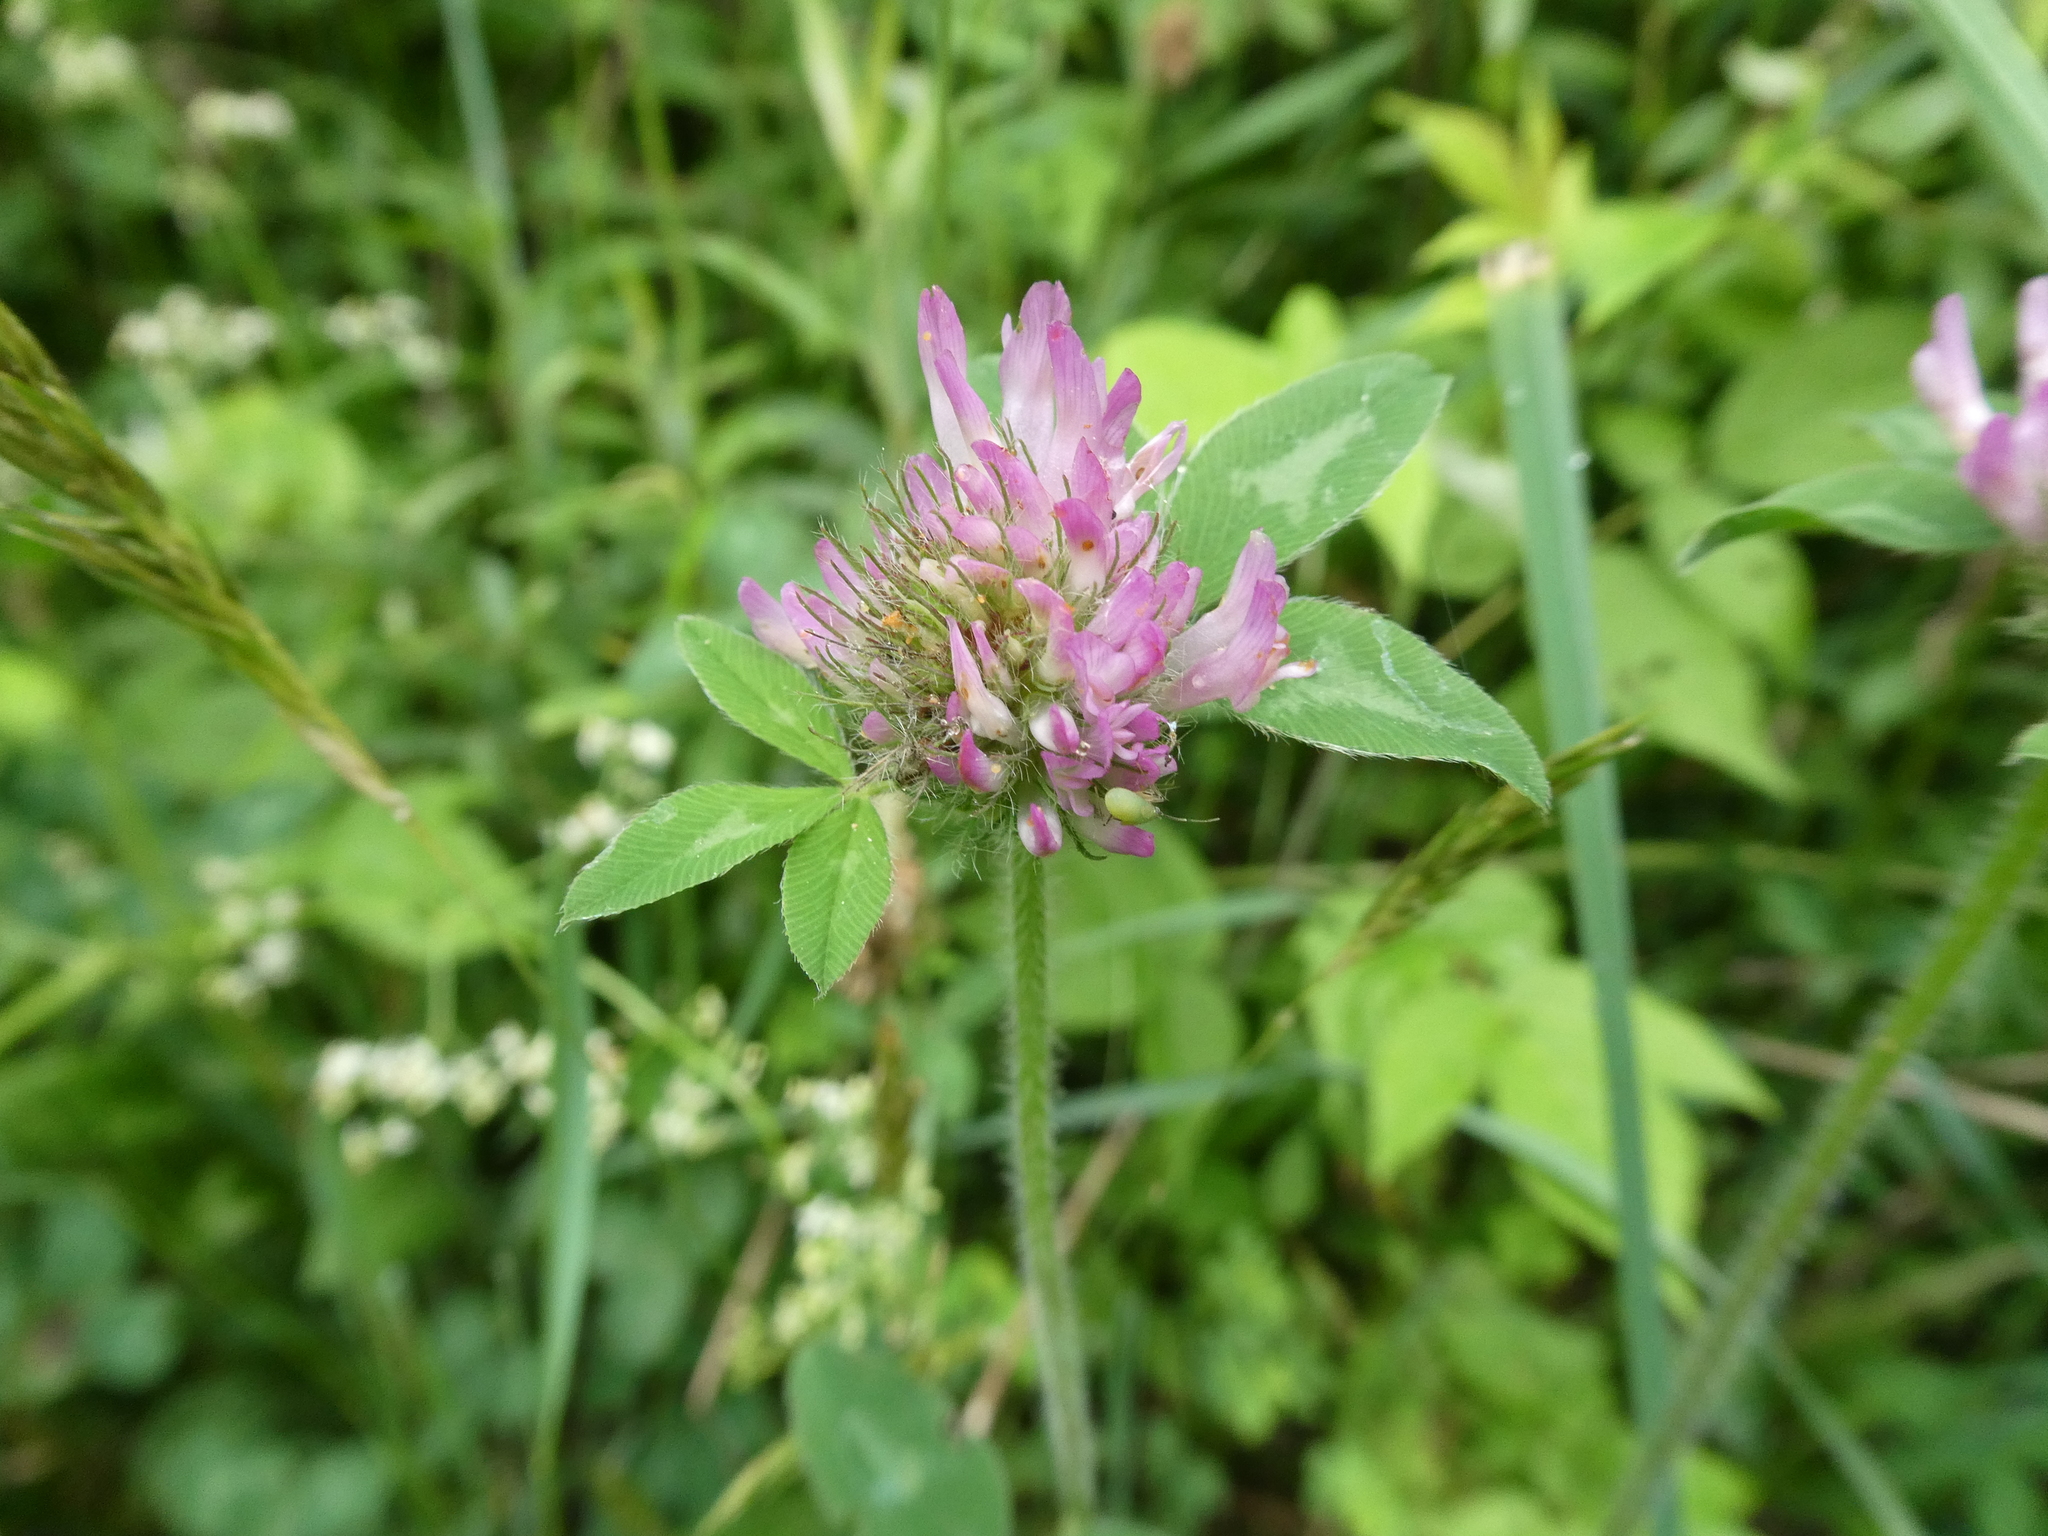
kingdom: Plantae
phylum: Tracheophyta
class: Magnoliopsida
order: Fabales
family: Fabaceae
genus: Trifolium
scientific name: Trifolium pratense
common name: Red clover
